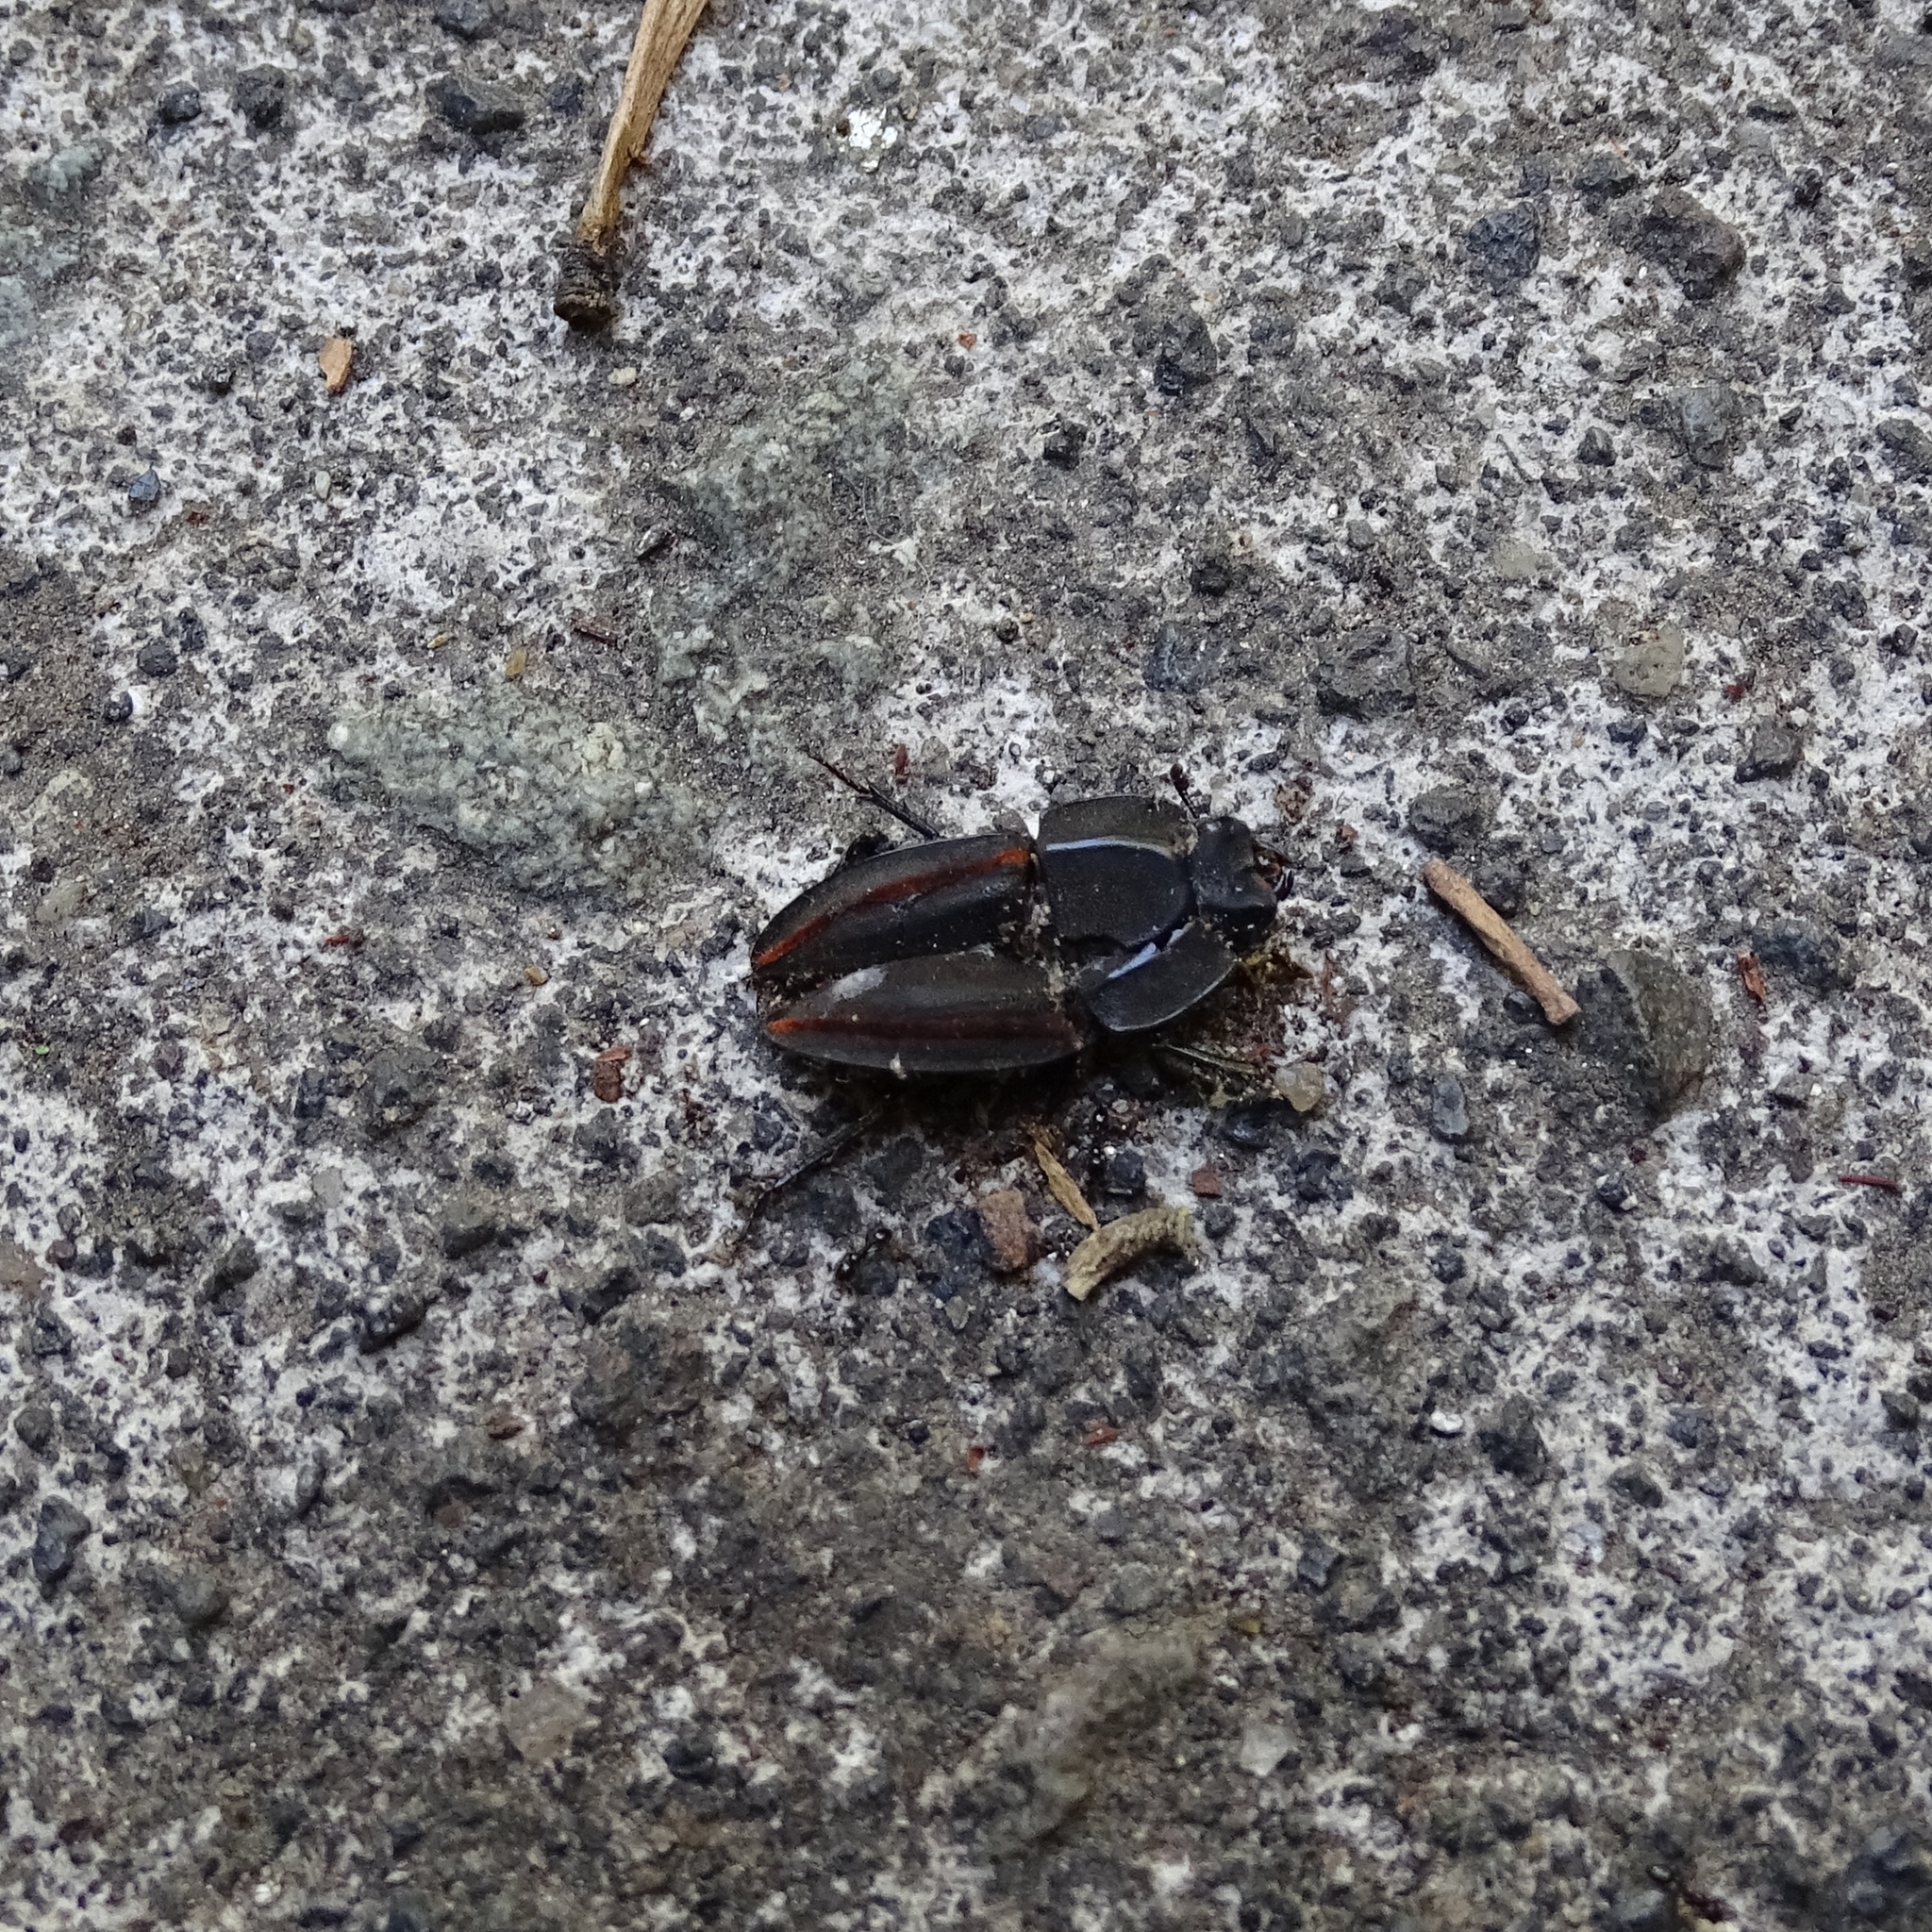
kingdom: Animalia
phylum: Arthropoda
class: Insecta
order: Coleoptera
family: Lucanidae
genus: Erichius
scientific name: Erichius vittatus
